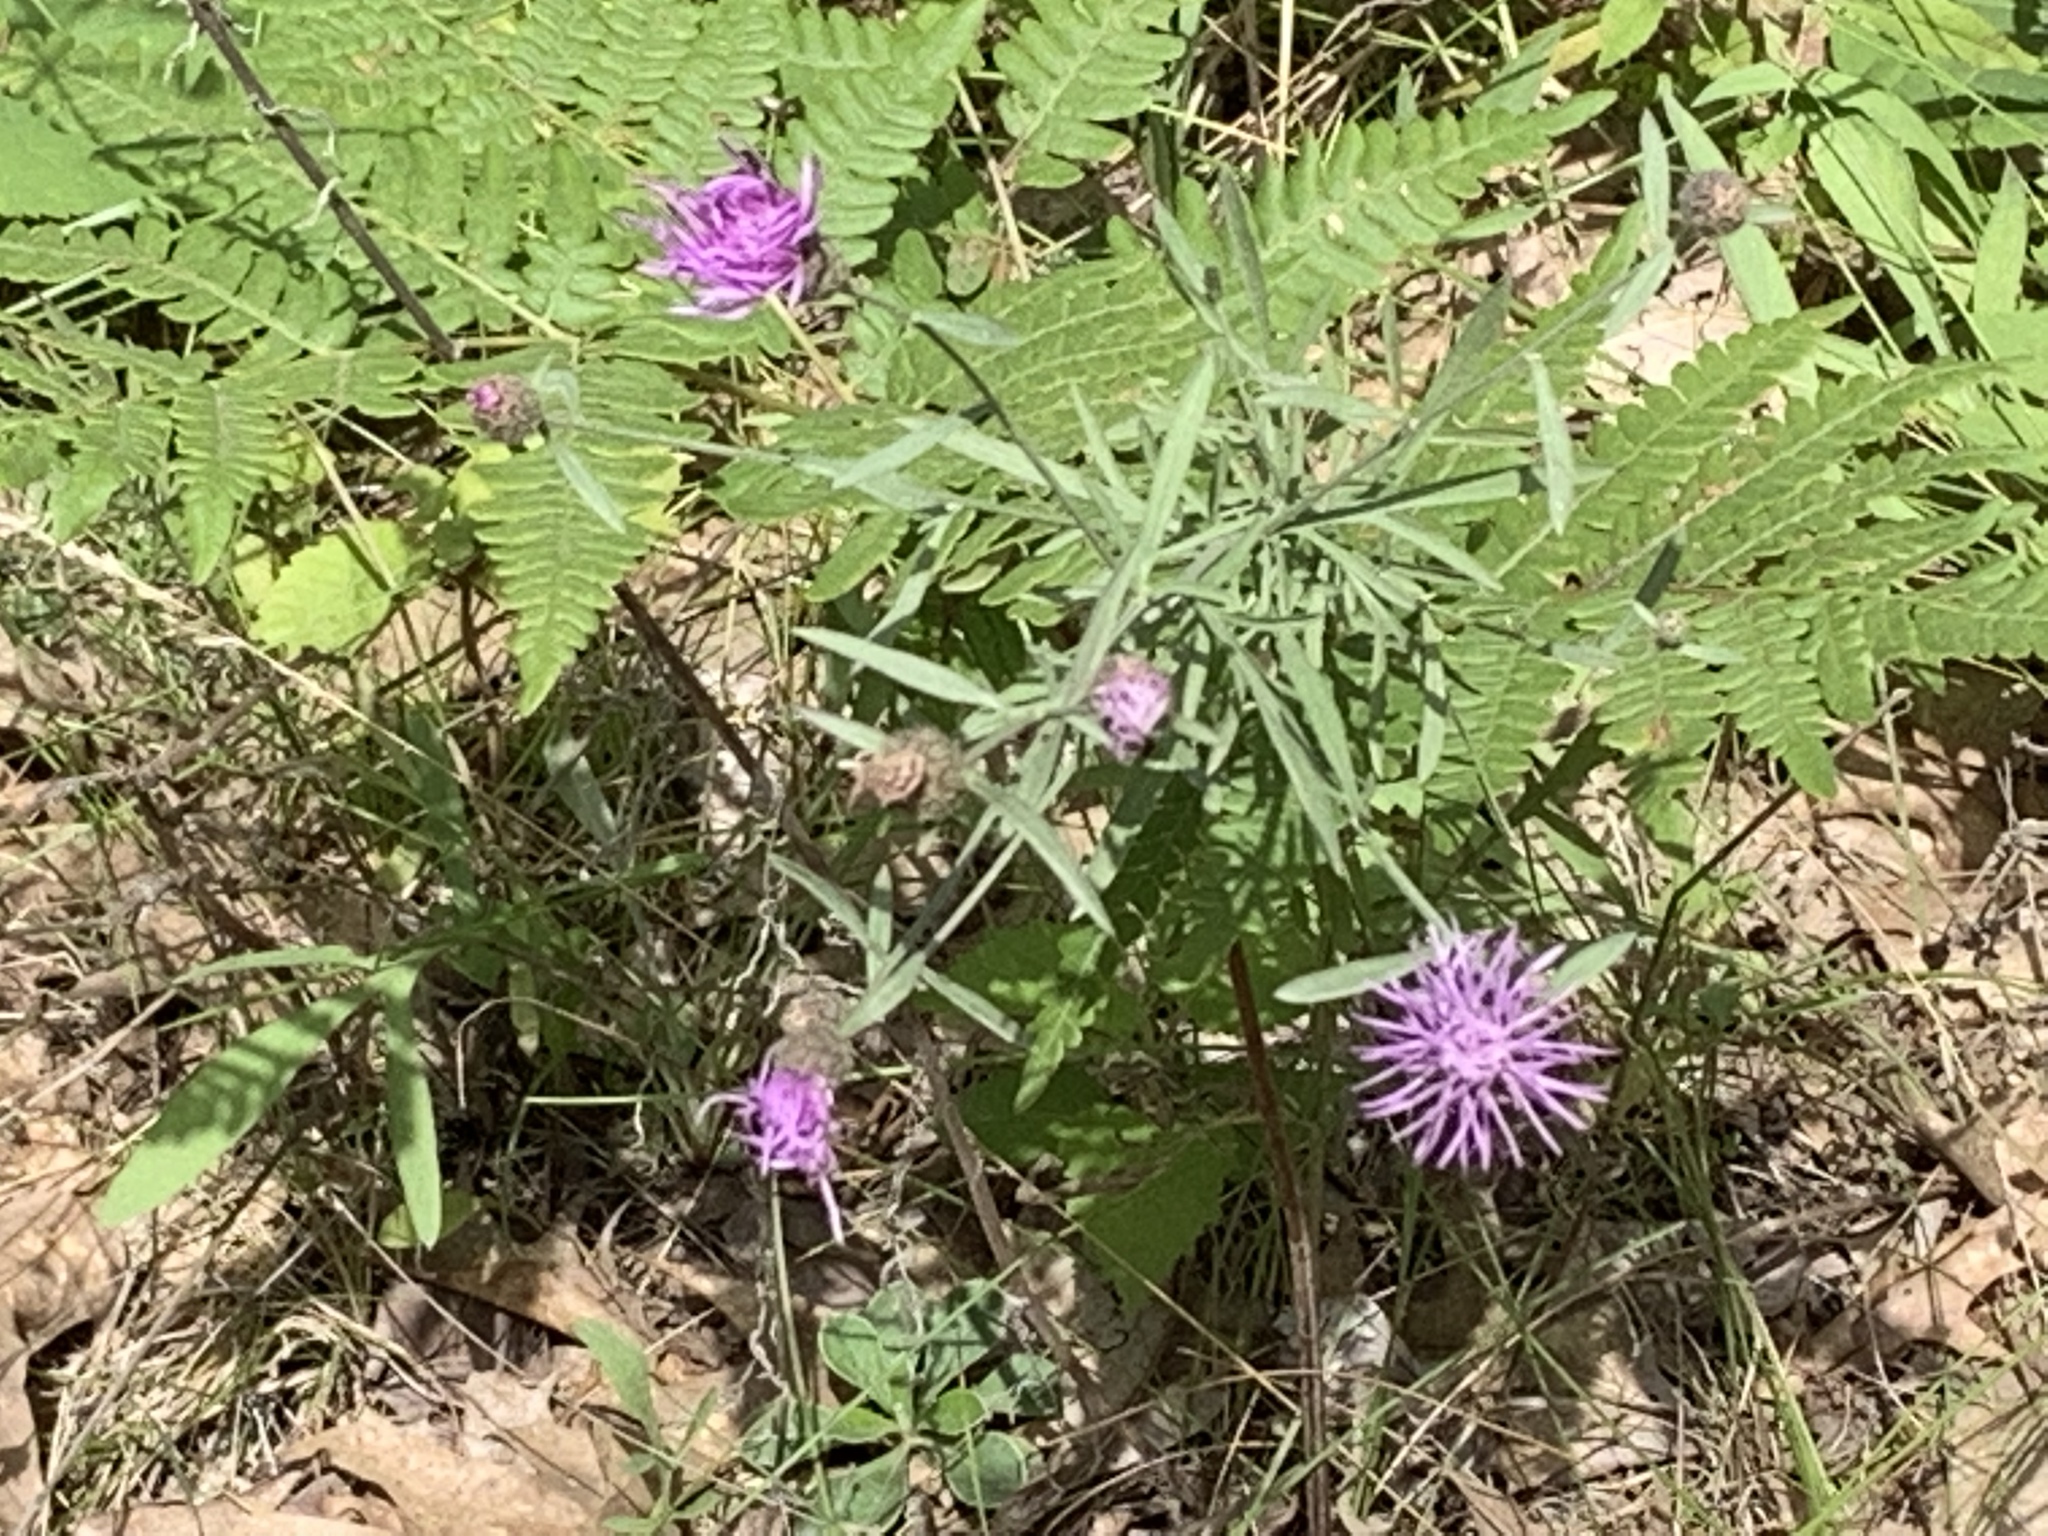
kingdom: Plantae
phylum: Tracheophyta
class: Magnoliopsida
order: Asterales
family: Asteraceae
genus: Centaurea
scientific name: Centaurea stoebe
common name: Spotted knapweed
